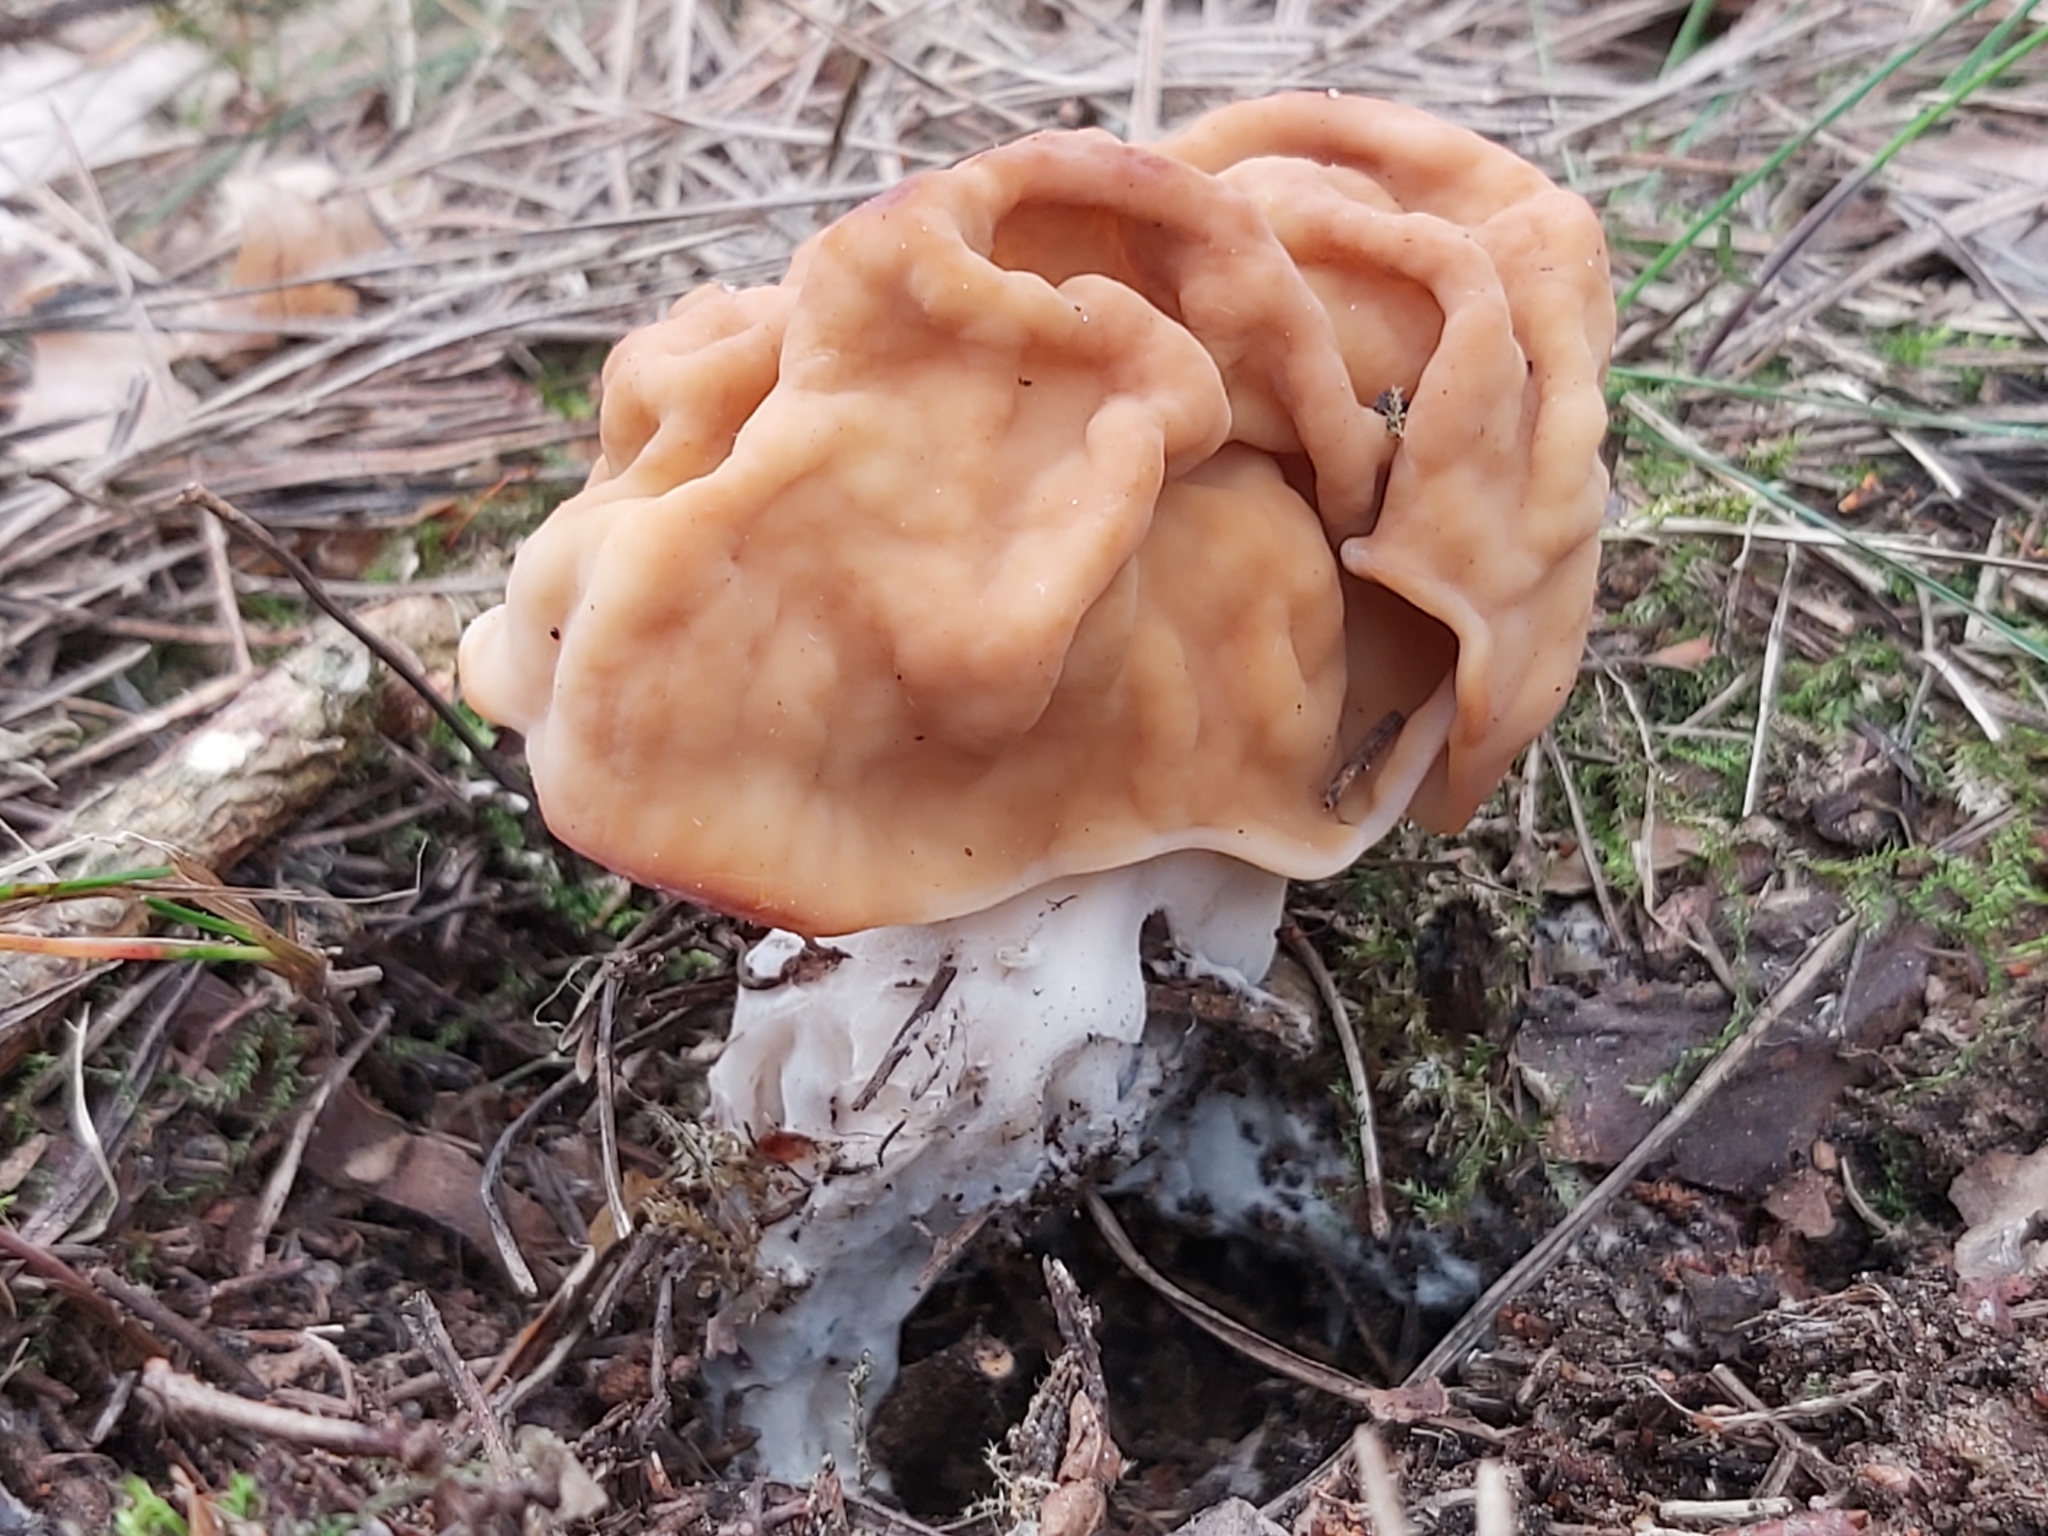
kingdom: Fungi
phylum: Ascomycota
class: Pezizomycetes
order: Pezizales
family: Discinaceae
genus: Gyromitra
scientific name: Gyromitra gigas
